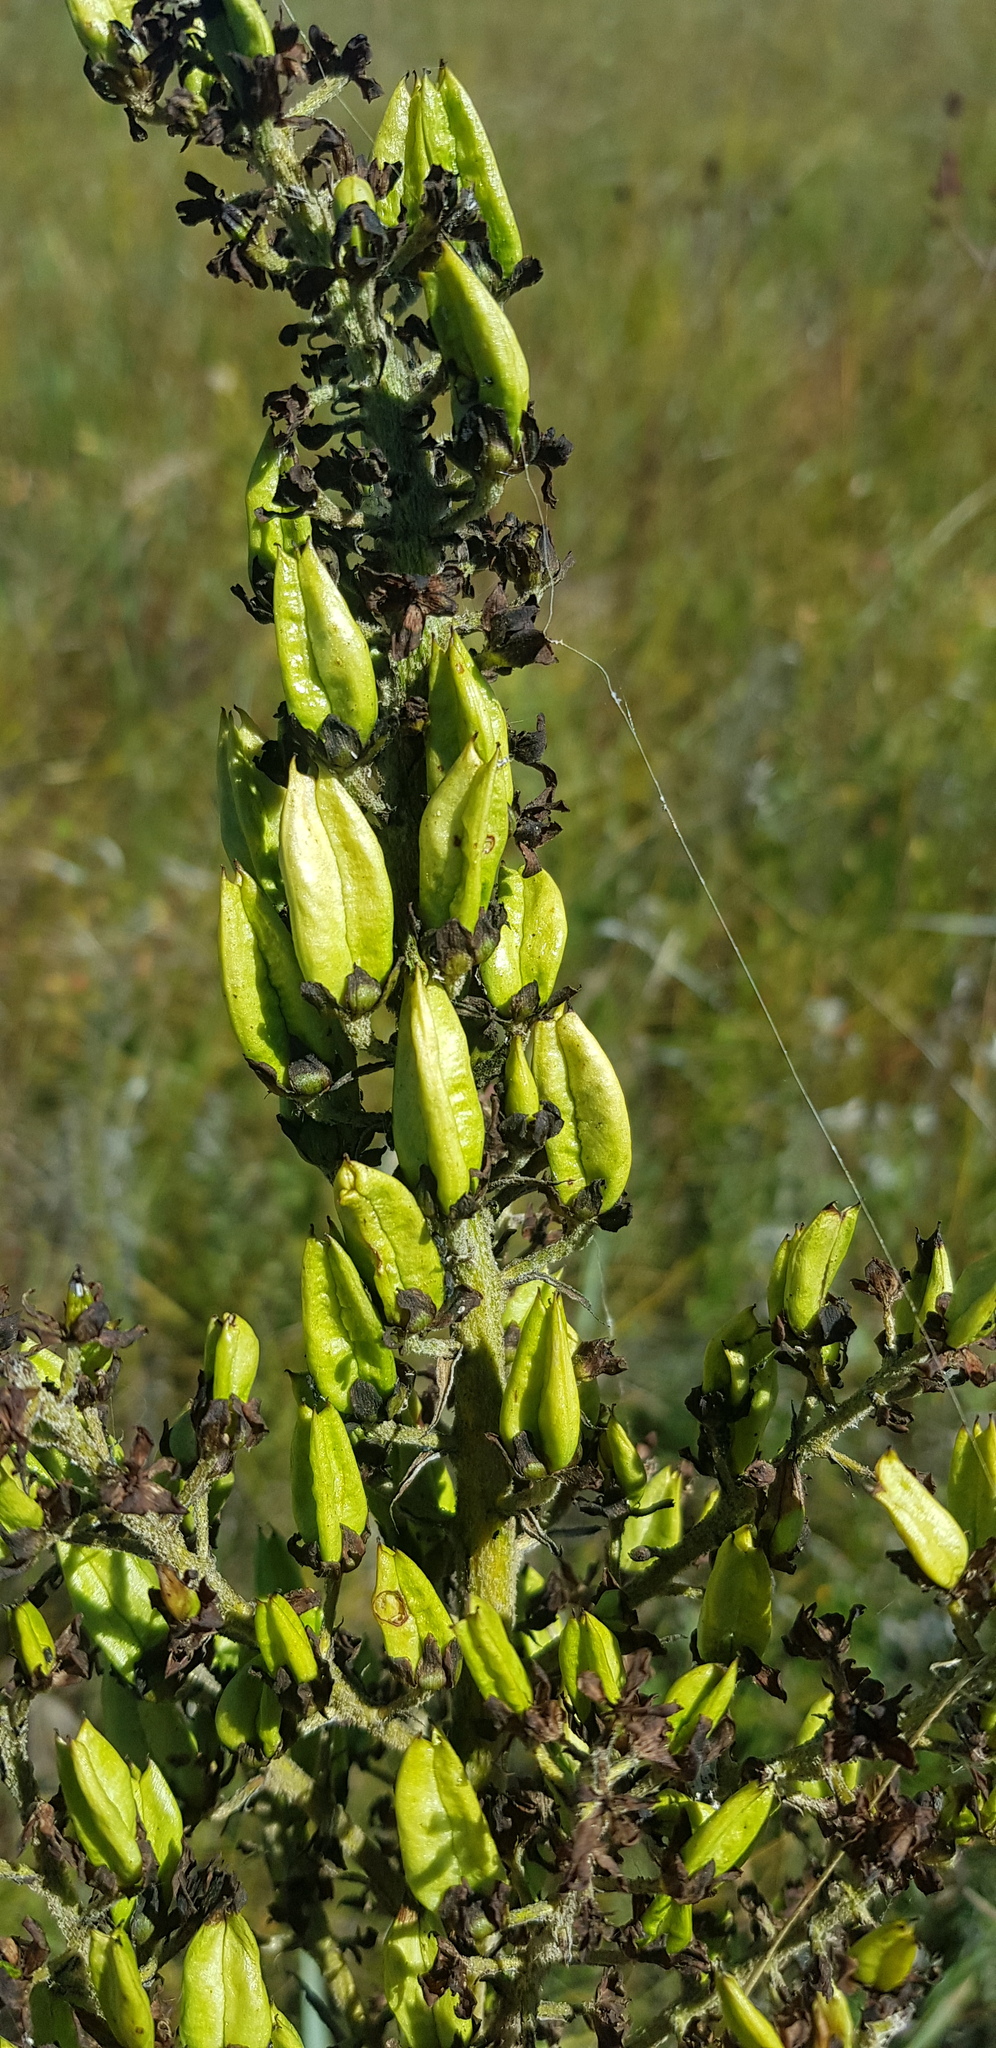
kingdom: Plantae
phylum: Tracheophyta
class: Liliopsida
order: Liliales
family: Melanthiaceae
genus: Veratrum
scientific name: Veratrum nigrum
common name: Black veratrum
